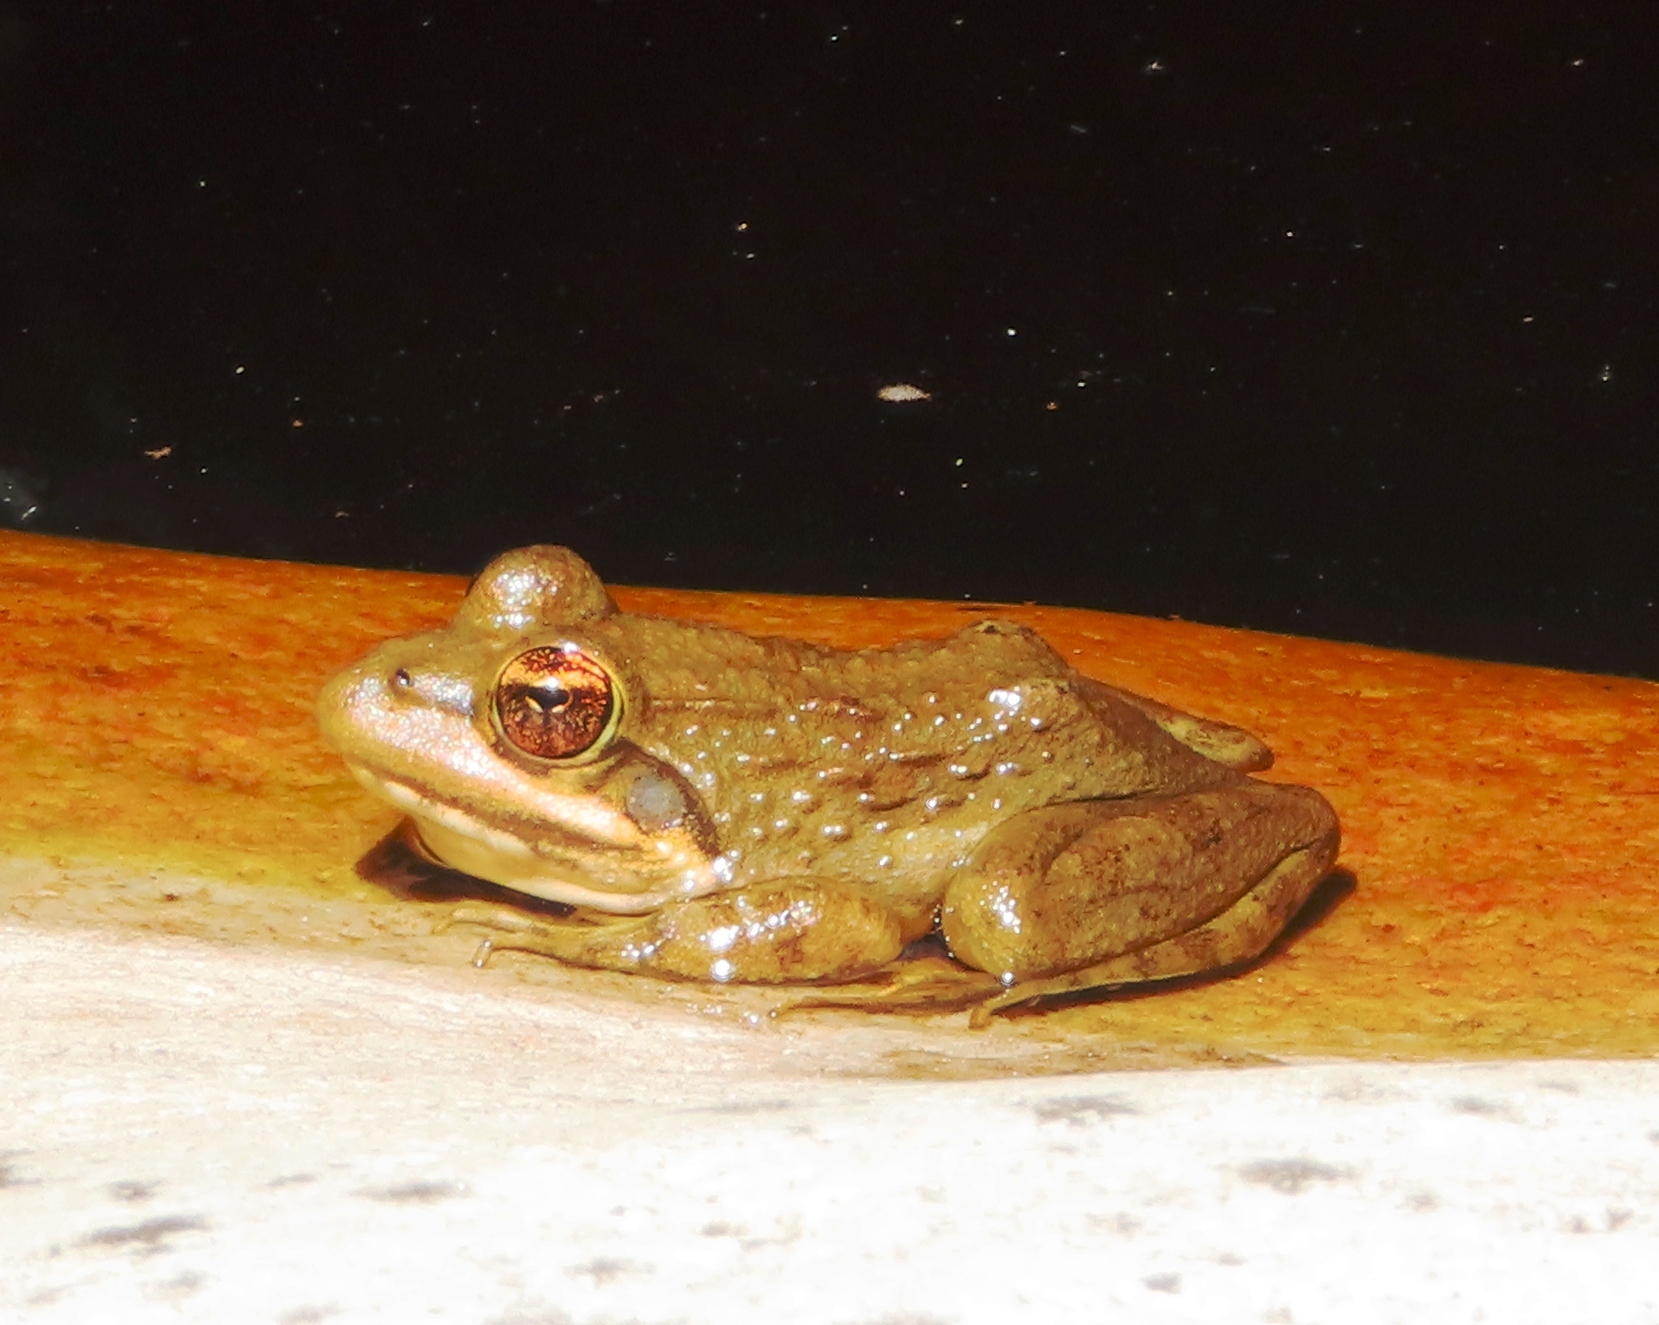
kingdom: Animalia
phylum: Chordata
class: Amphibia
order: Anura
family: Pyxicephalidae
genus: Amietia
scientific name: Amietia fuscigula
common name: Cape rana
